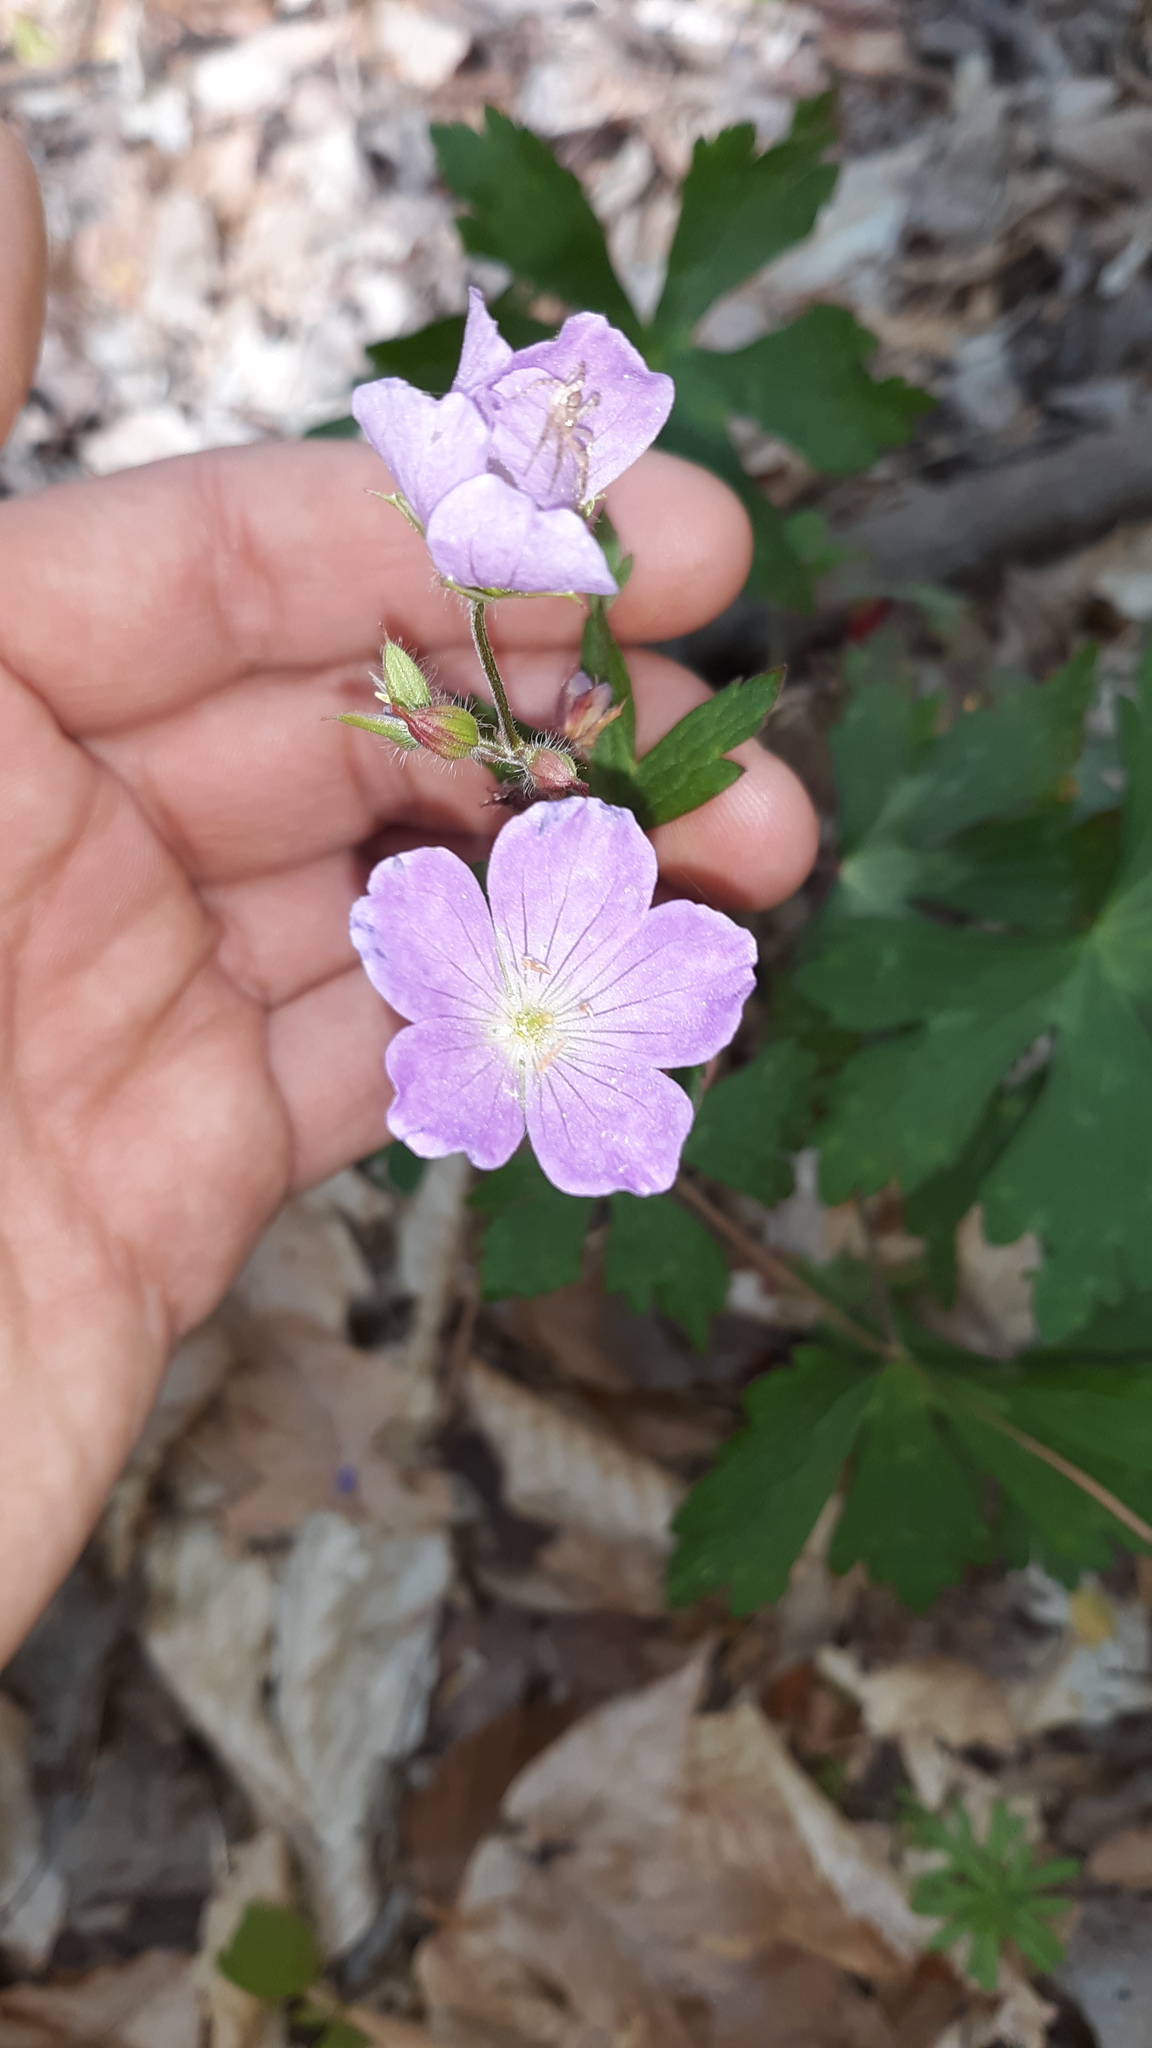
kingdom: Plantae
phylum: Tracheophyta
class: Magnoliopsida
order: Geraniales
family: Geraniaceae
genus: Geranium
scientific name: Geranium maculatum
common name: Spotted geranium
